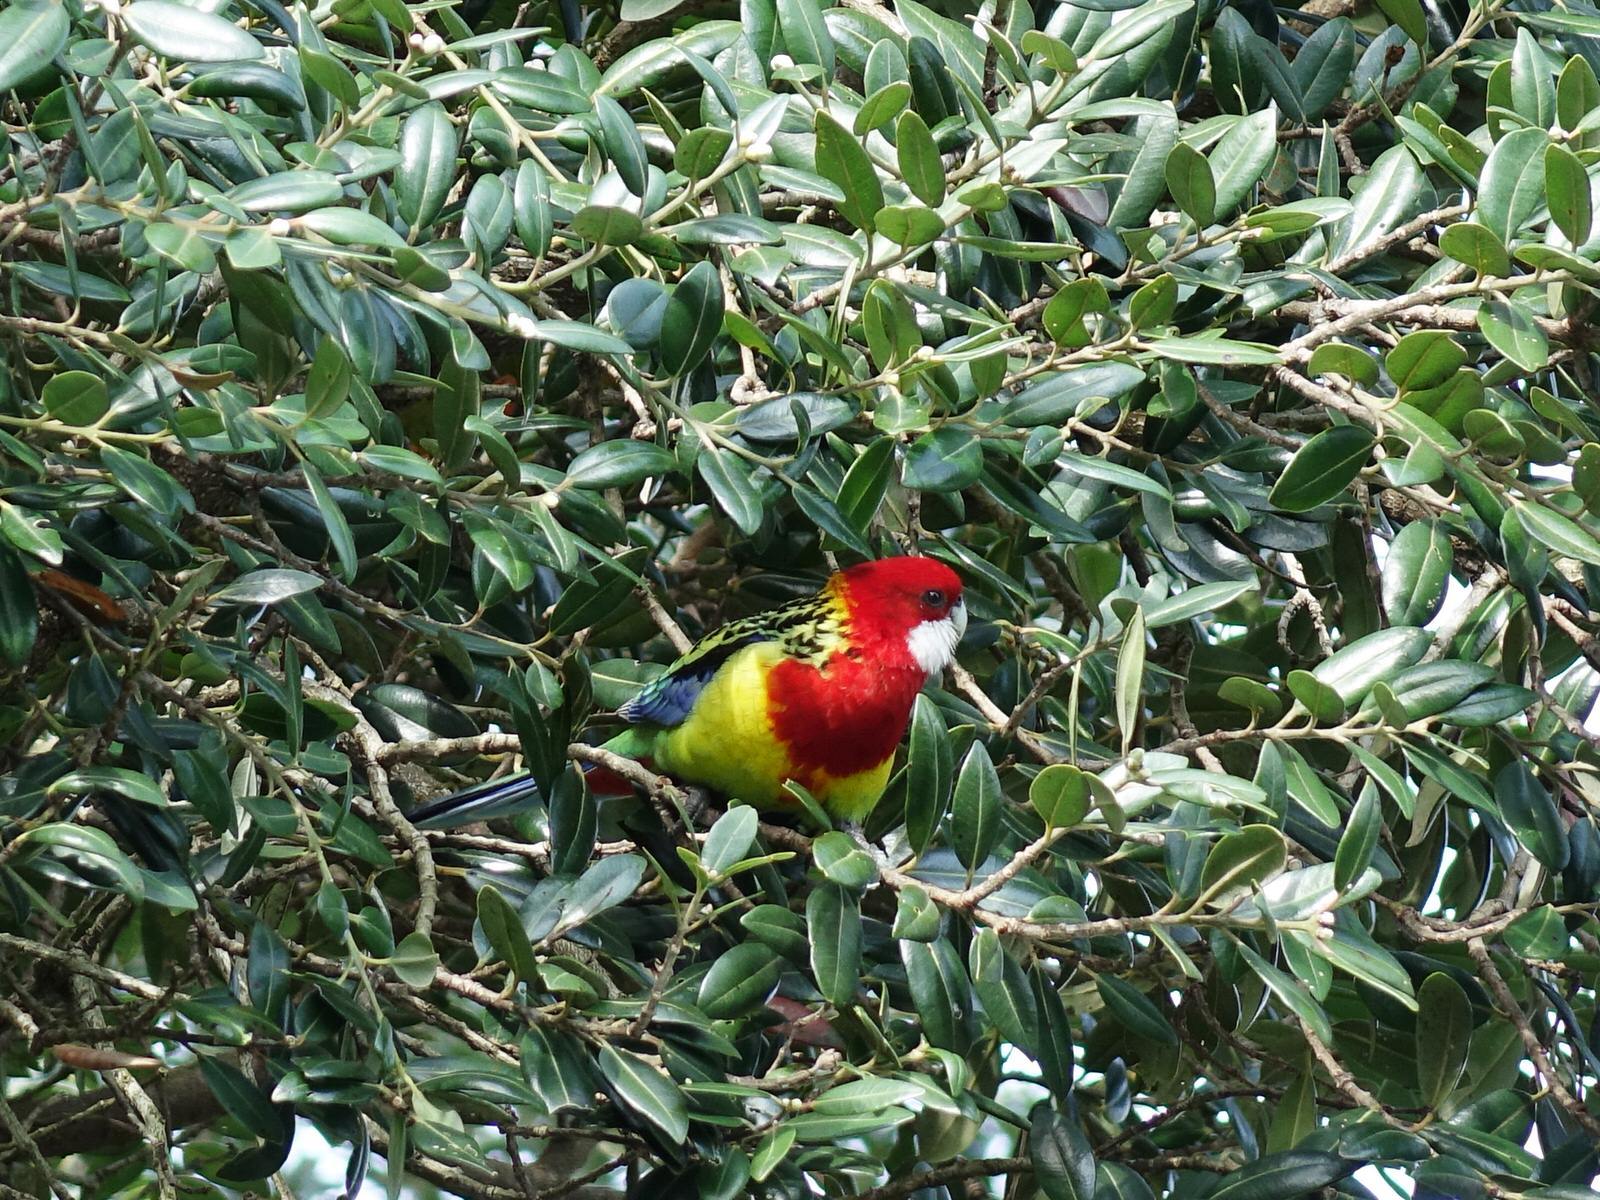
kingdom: Animalia
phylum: Chordata
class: Aves
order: Psittaciformes
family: Psittacidae
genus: Platycercus
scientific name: Platycercus eximius
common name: Eastern rosella
